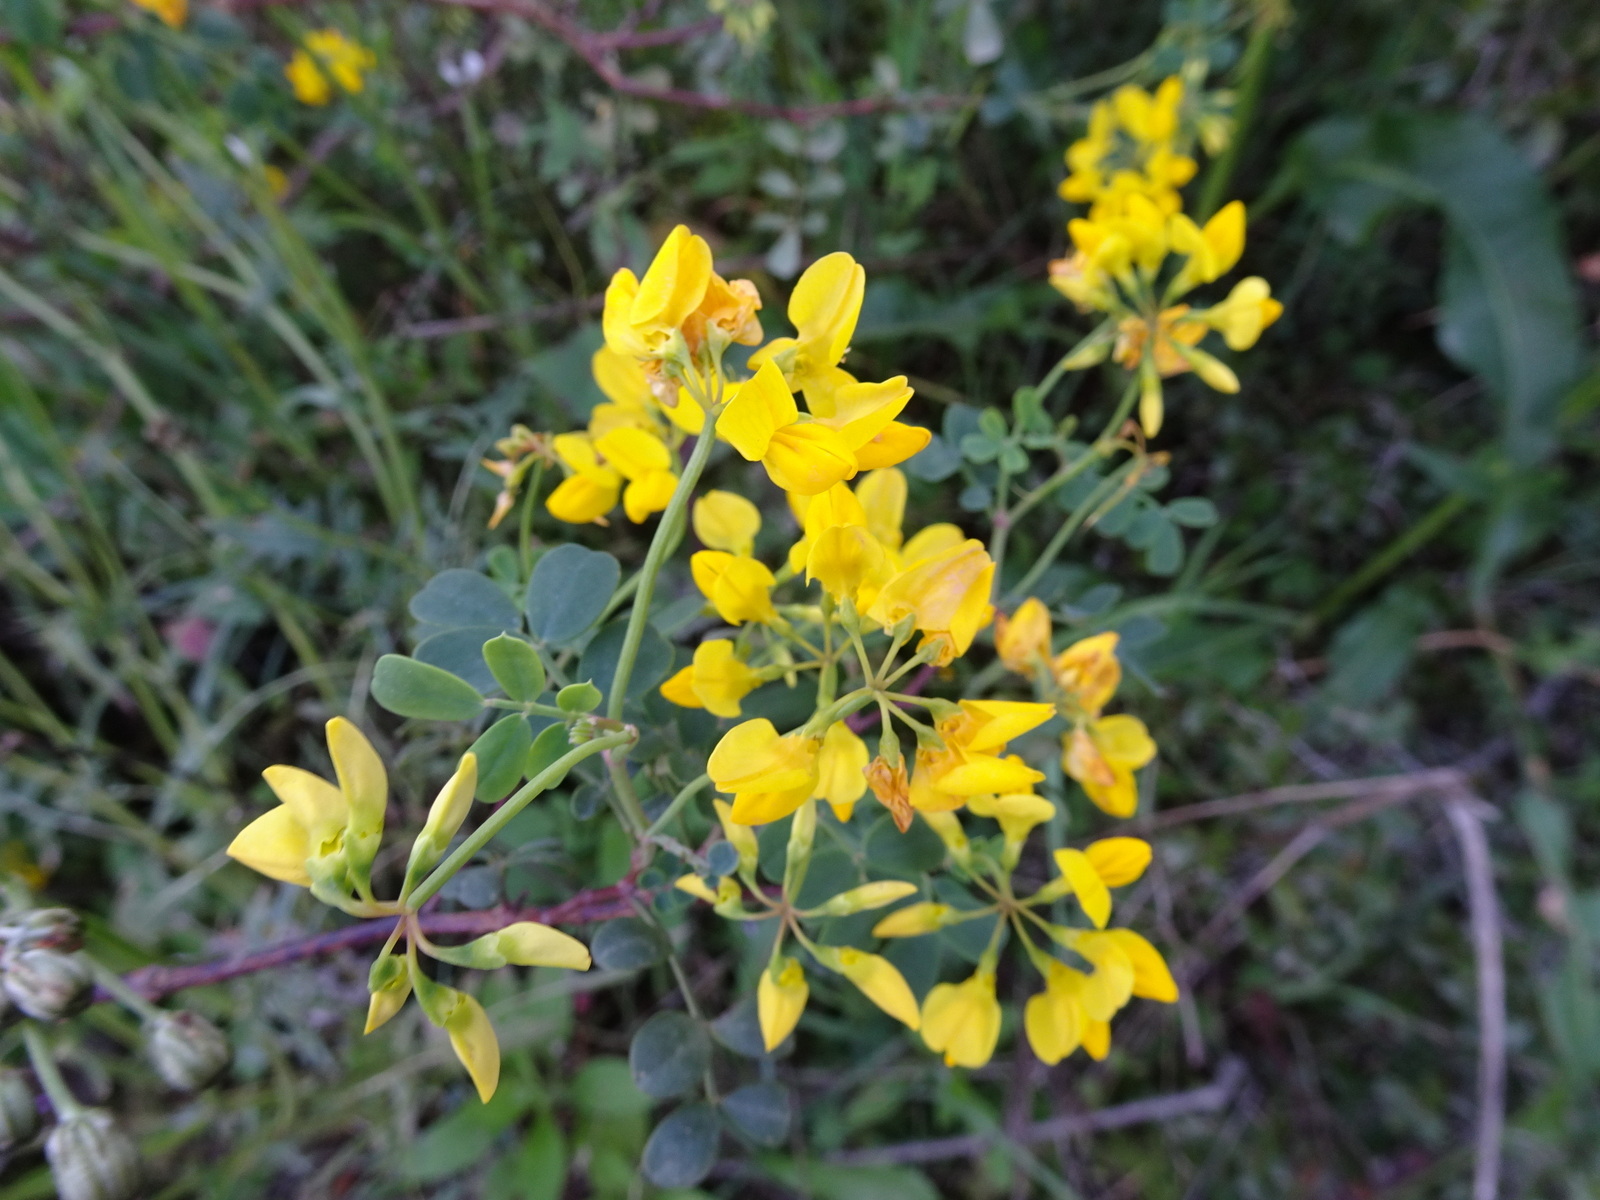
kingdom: Plantae
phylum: Tracheophyta
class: Magnoliopsida
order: Fabales
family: Fabaceae
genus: Coronilla
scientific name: Coronilla valentina
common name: Shrubby scorpion-vetch
